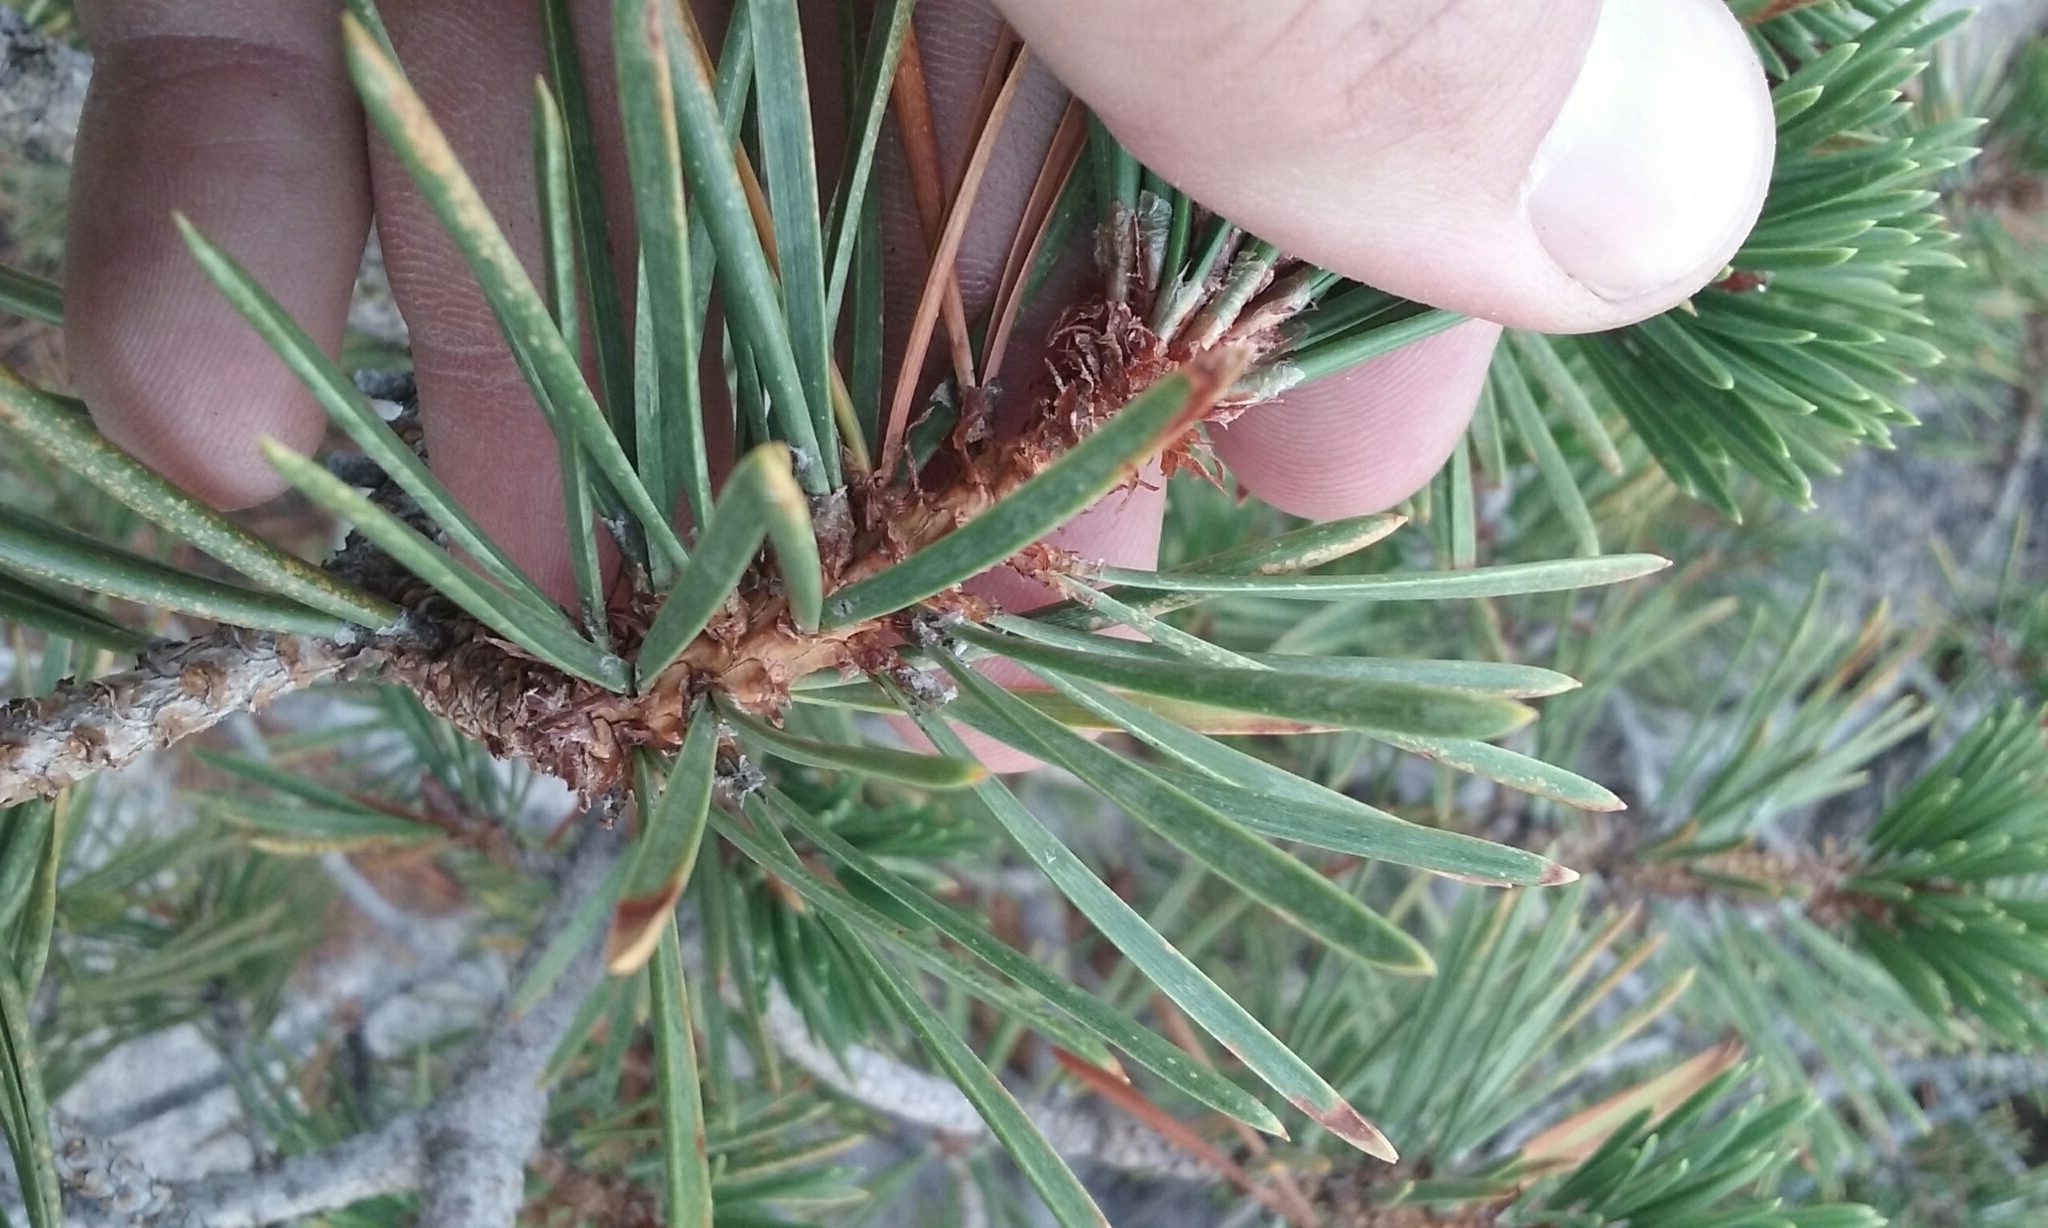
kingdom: Plantae
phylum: Tracheophyta
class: Pinopsida
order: Pinales
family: Pinaceae
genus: Pinus
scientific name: Pinus contorta
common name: Lodgepole pine
